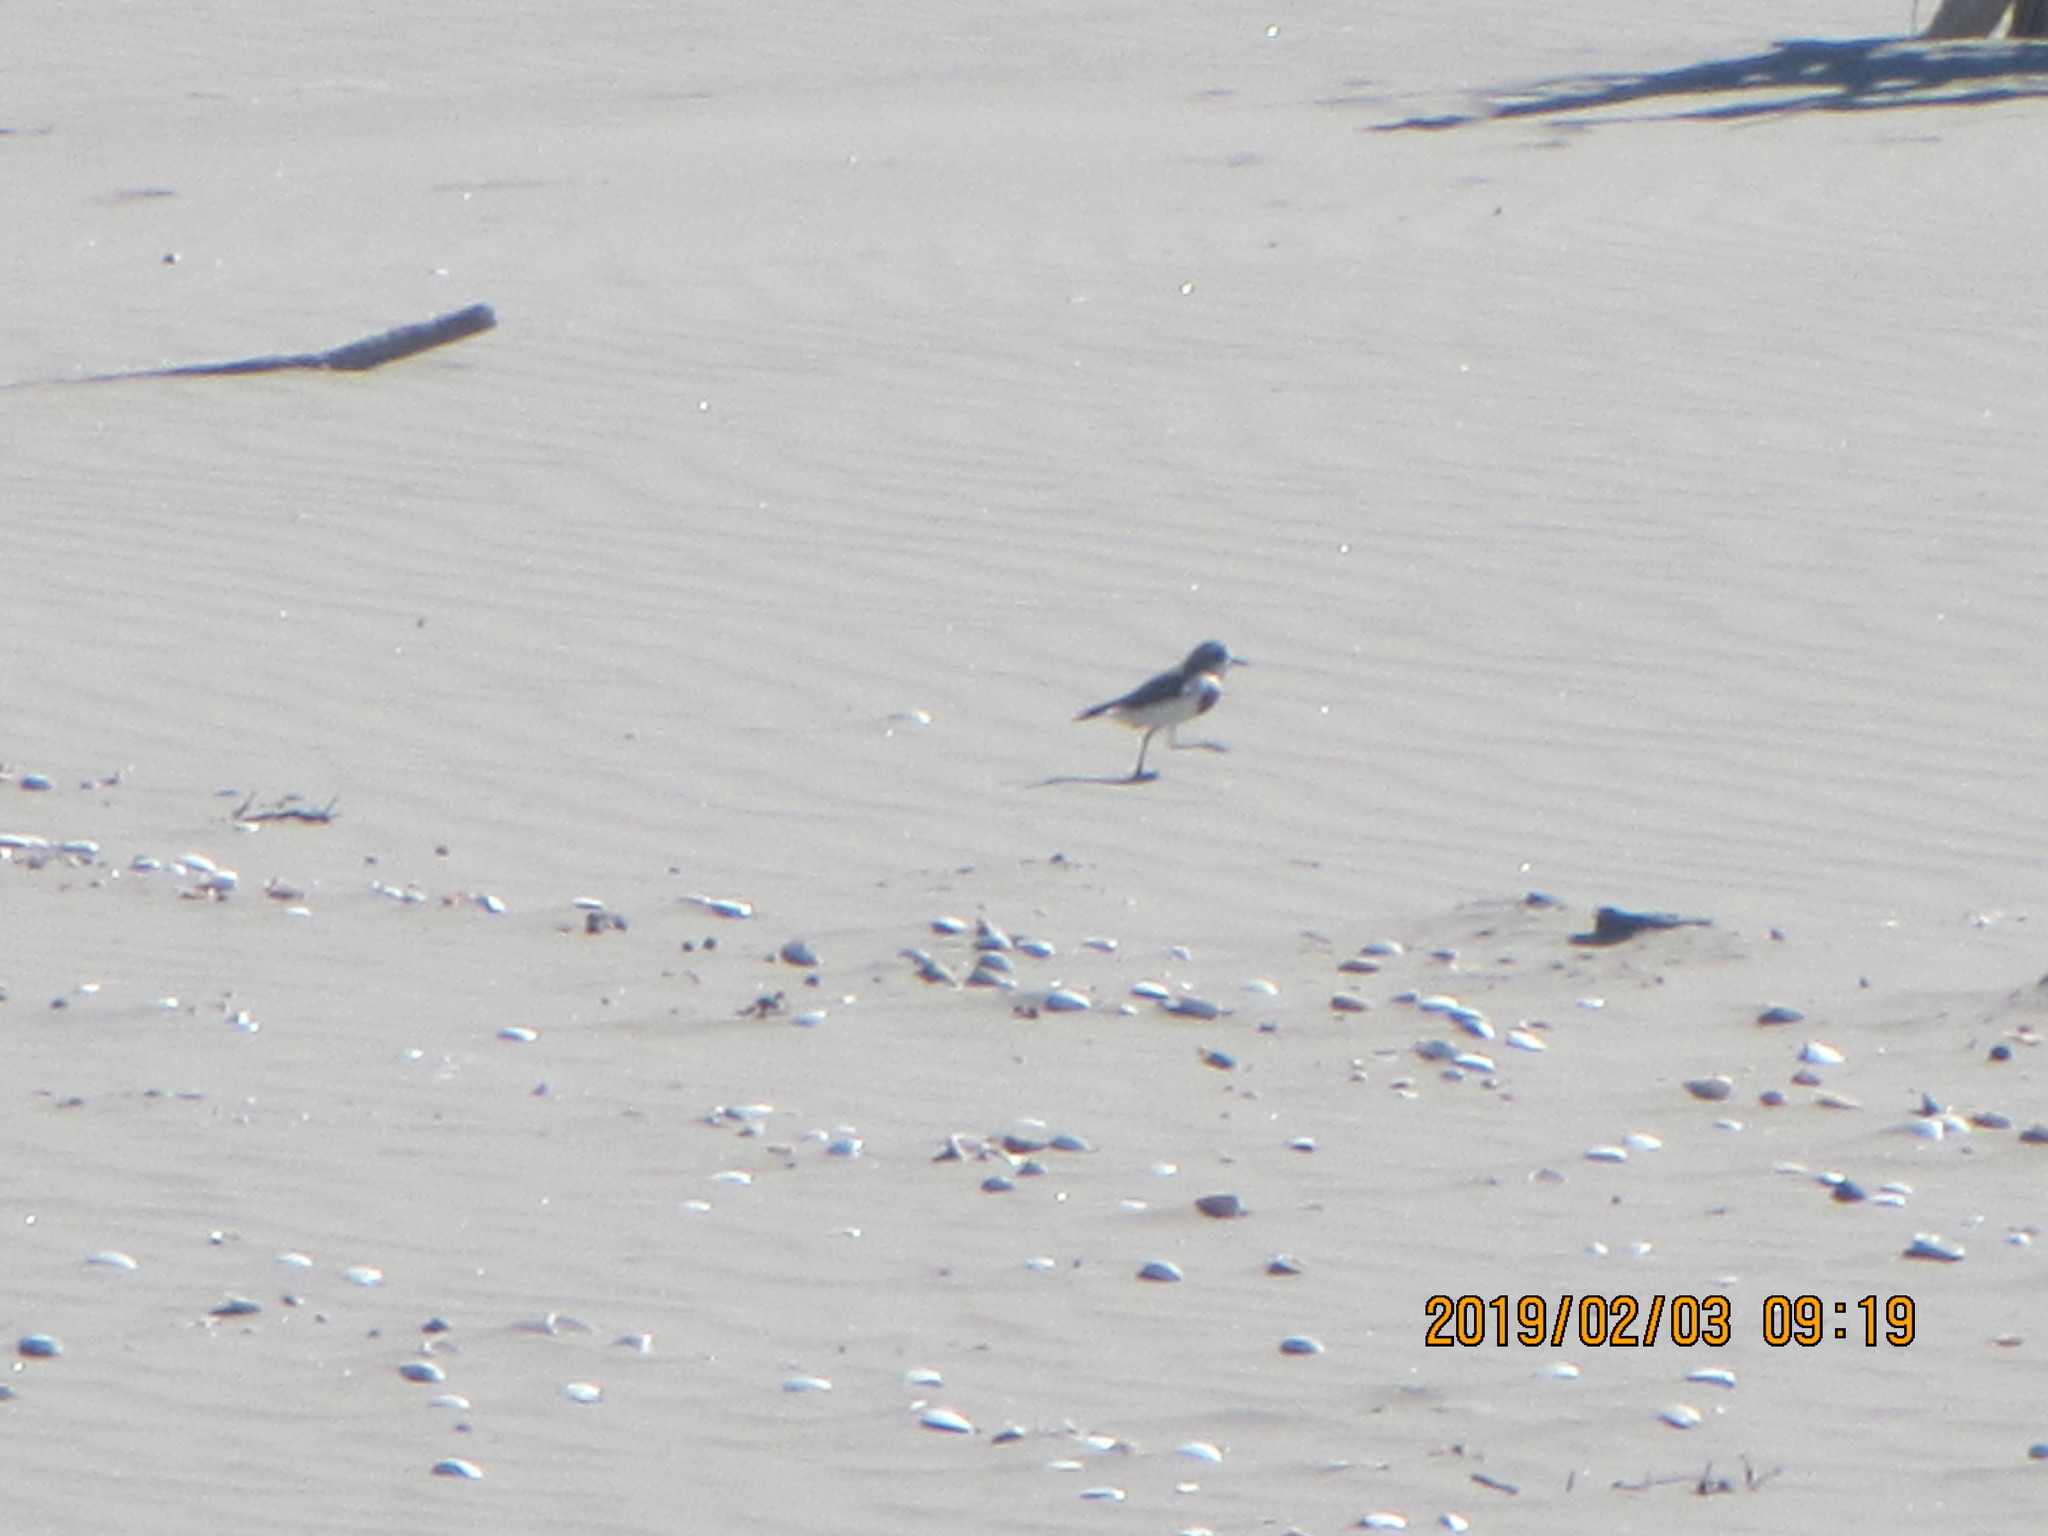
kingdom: Animalia
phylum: Chordata
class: Aves
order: Charadriiformes
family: Charadriidae
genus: Anarhynchus
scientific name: Anarhynchus
